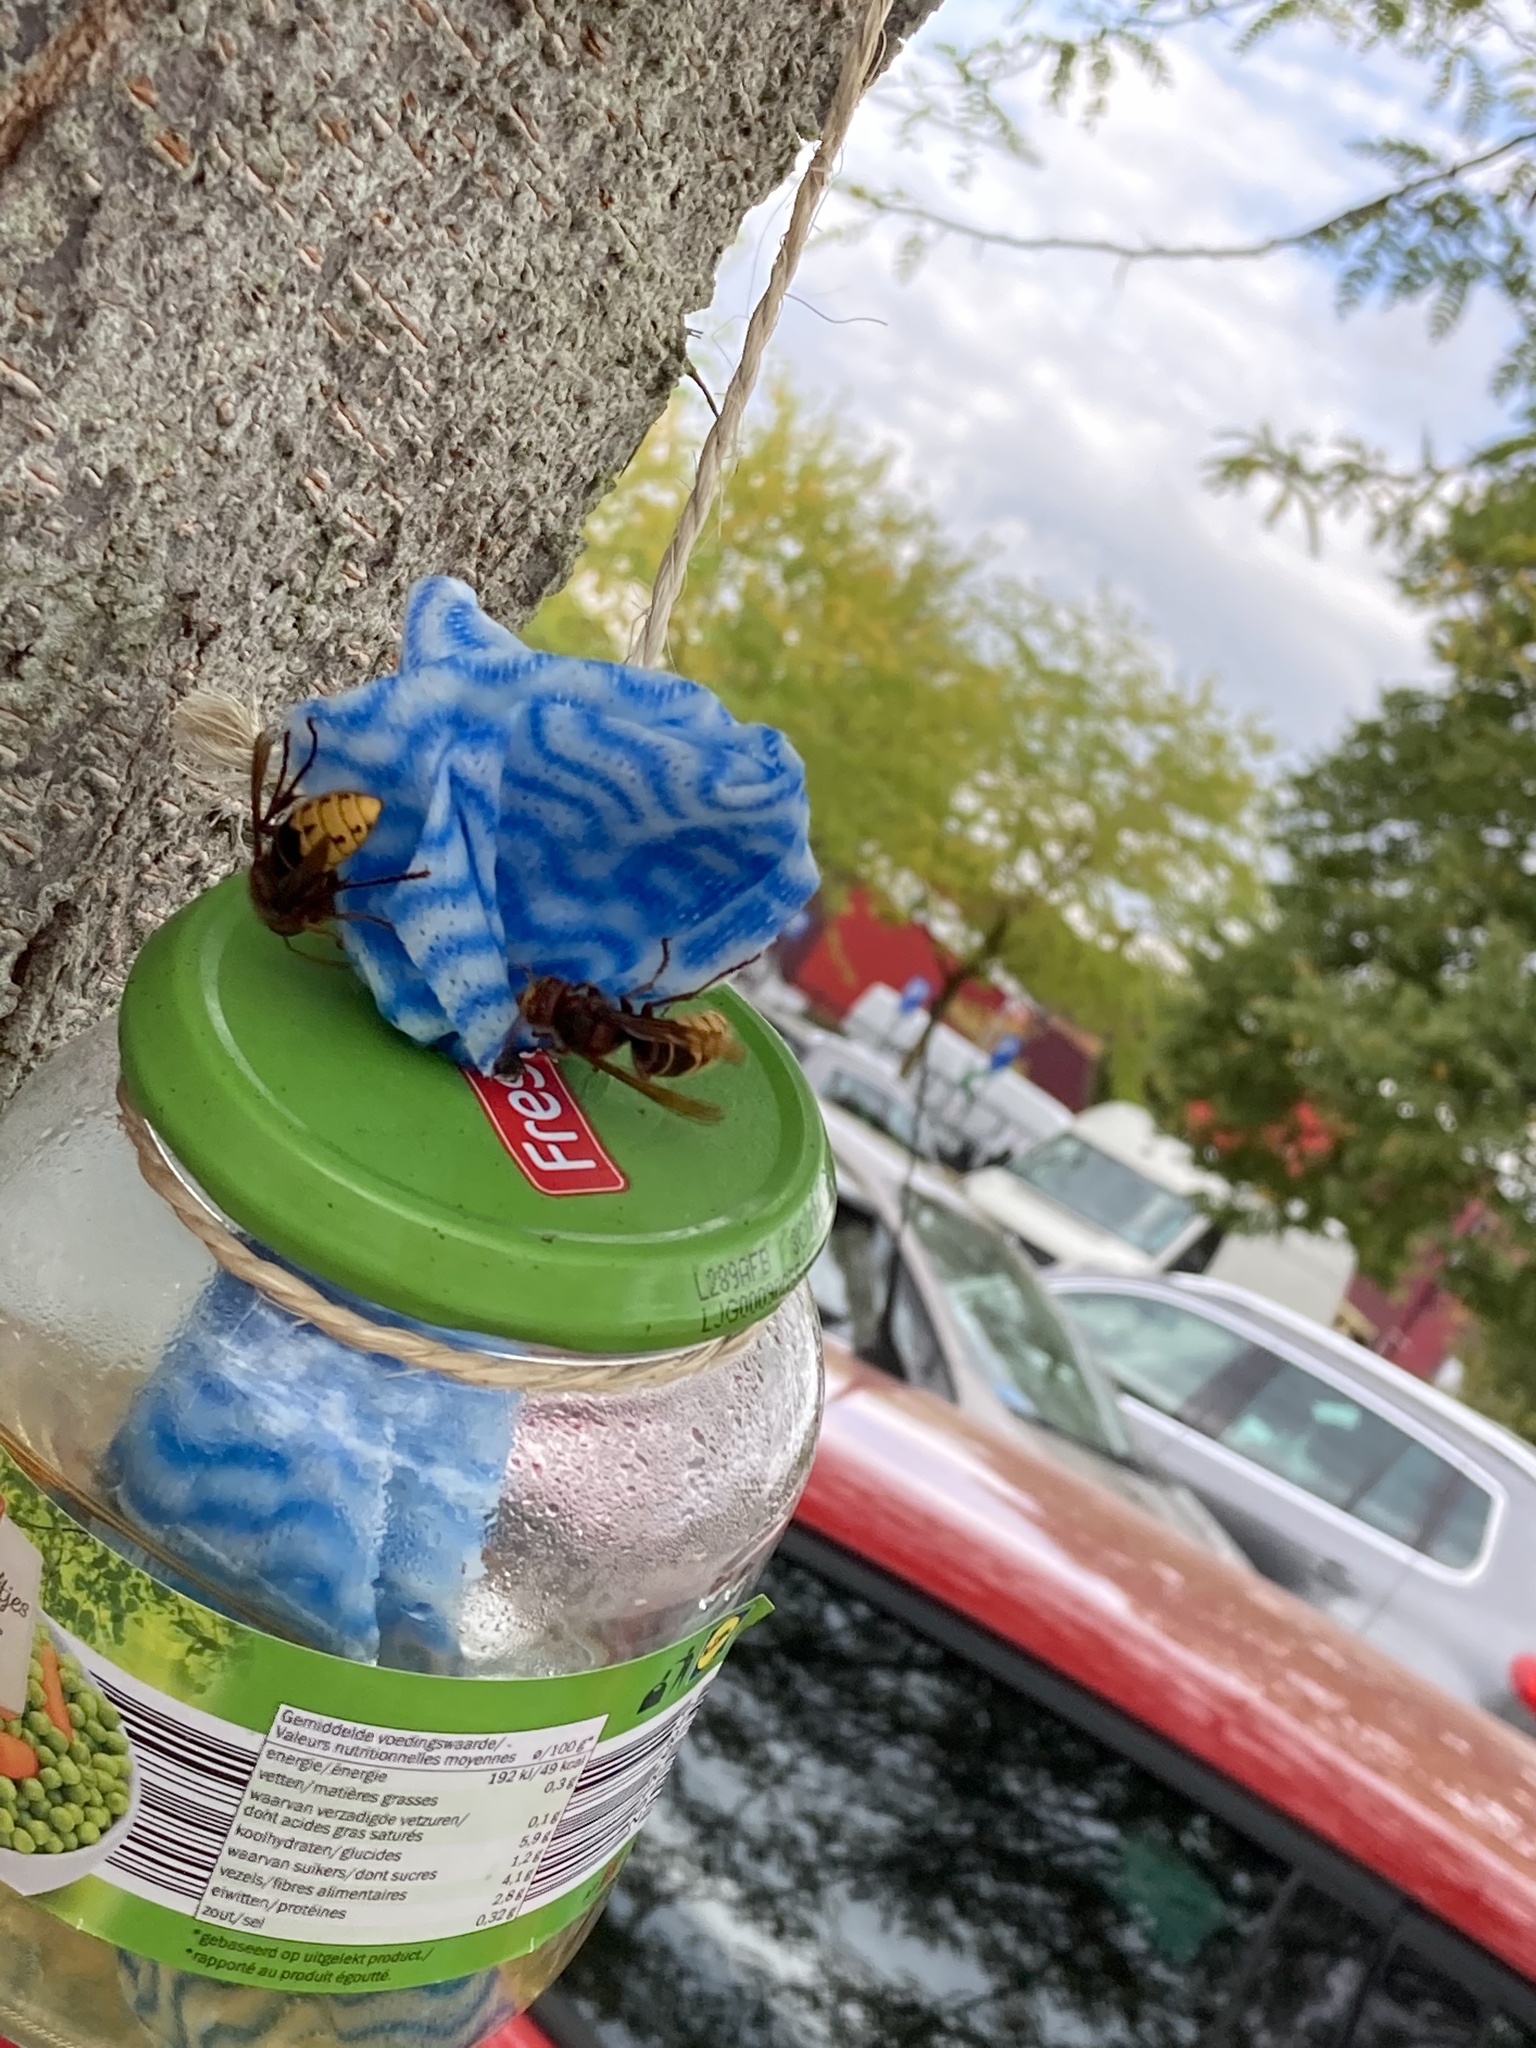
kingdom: Animalia
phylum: Arthropoda
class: Insecta
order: Hymenoptera
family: Vespidae
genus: Vespa
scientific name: Vespa crabro
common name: Hornet
